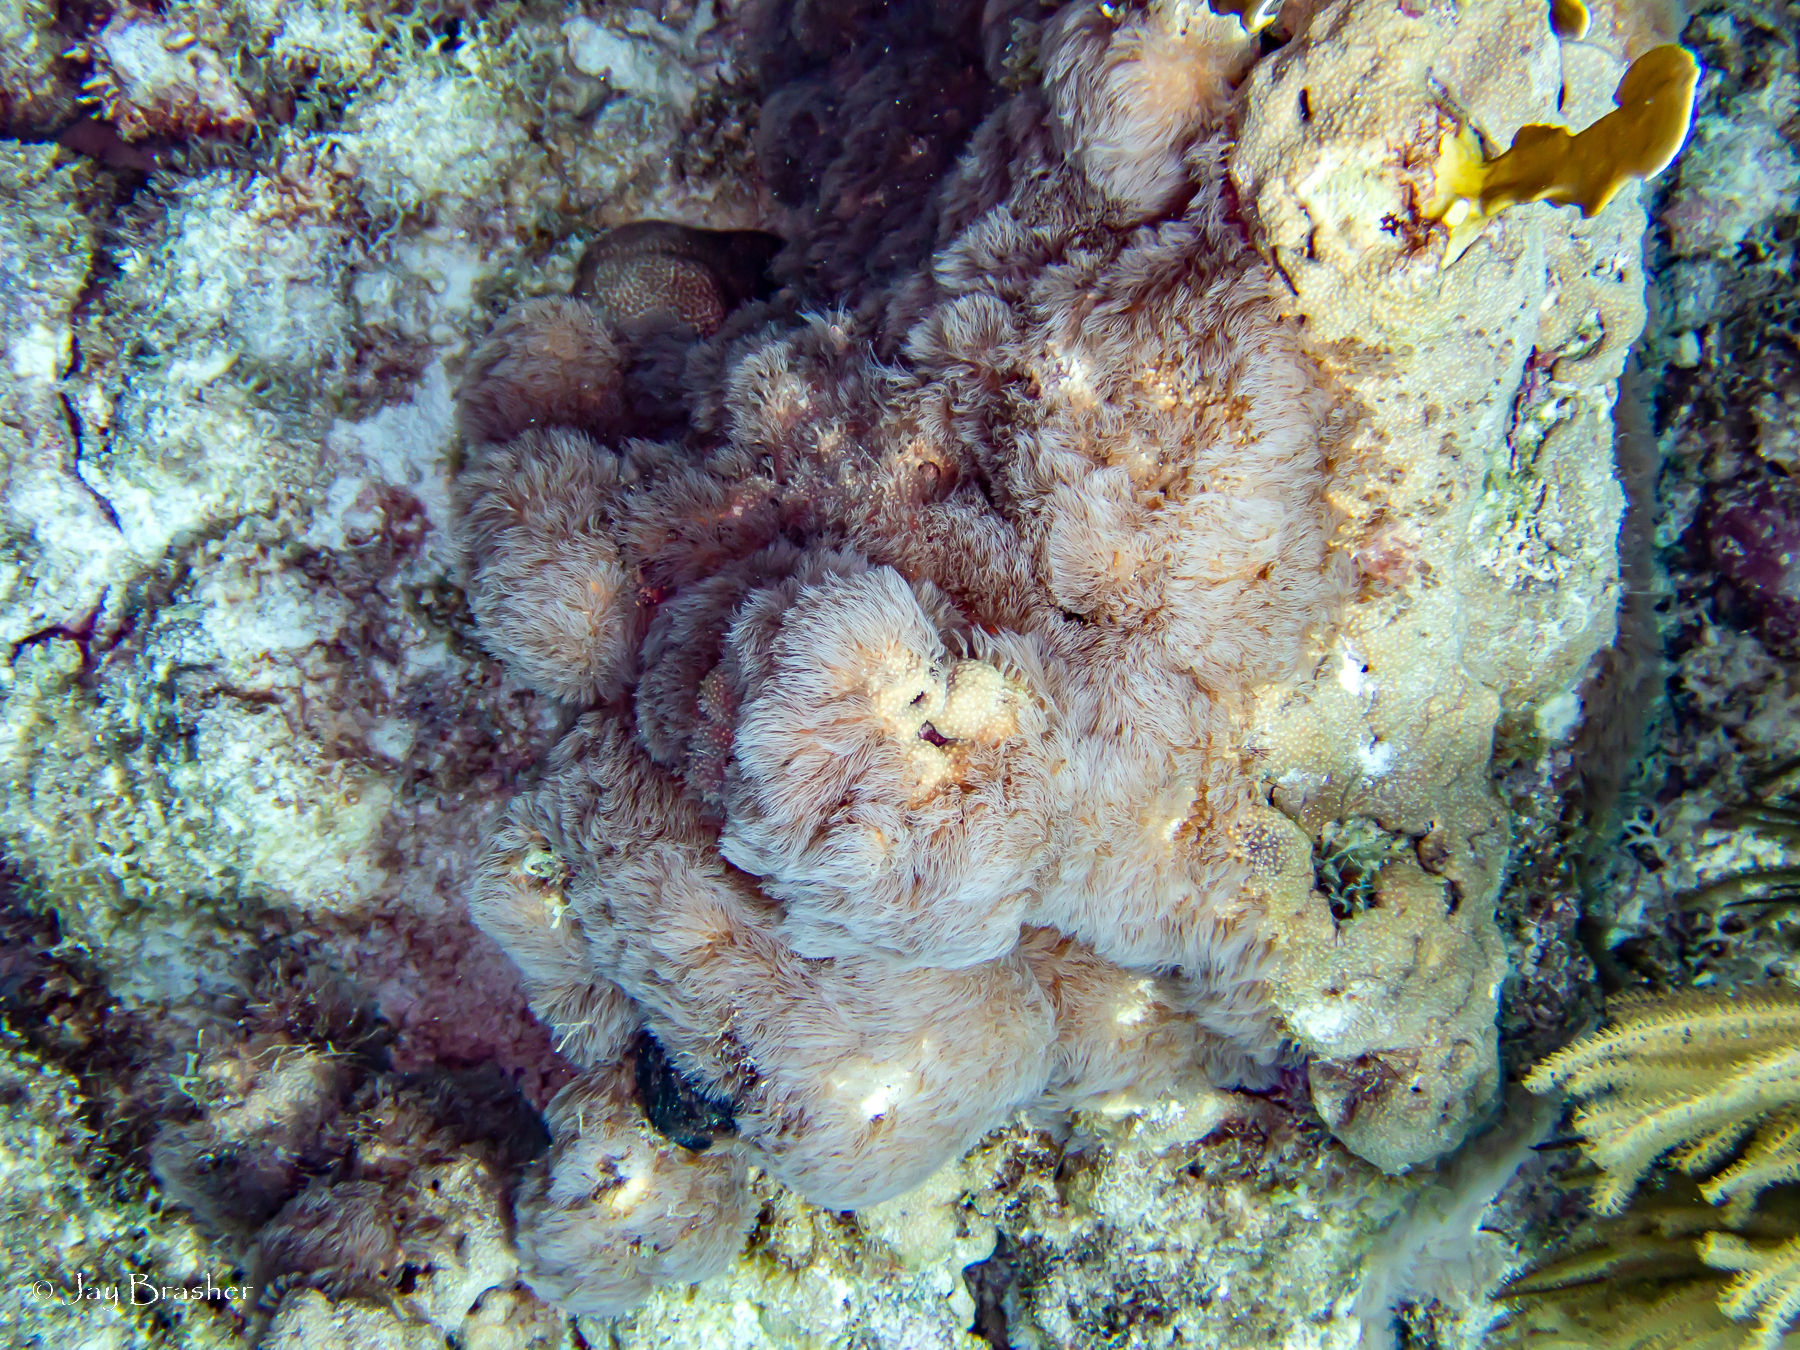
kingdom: Animalia
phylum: Cnidaria
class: Anthozoa
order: Scleralcyonacea
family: Erythropodiidae
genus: Erythropodium
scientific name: Erythropodium caribaeorum
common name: Encrusting gorgonian
